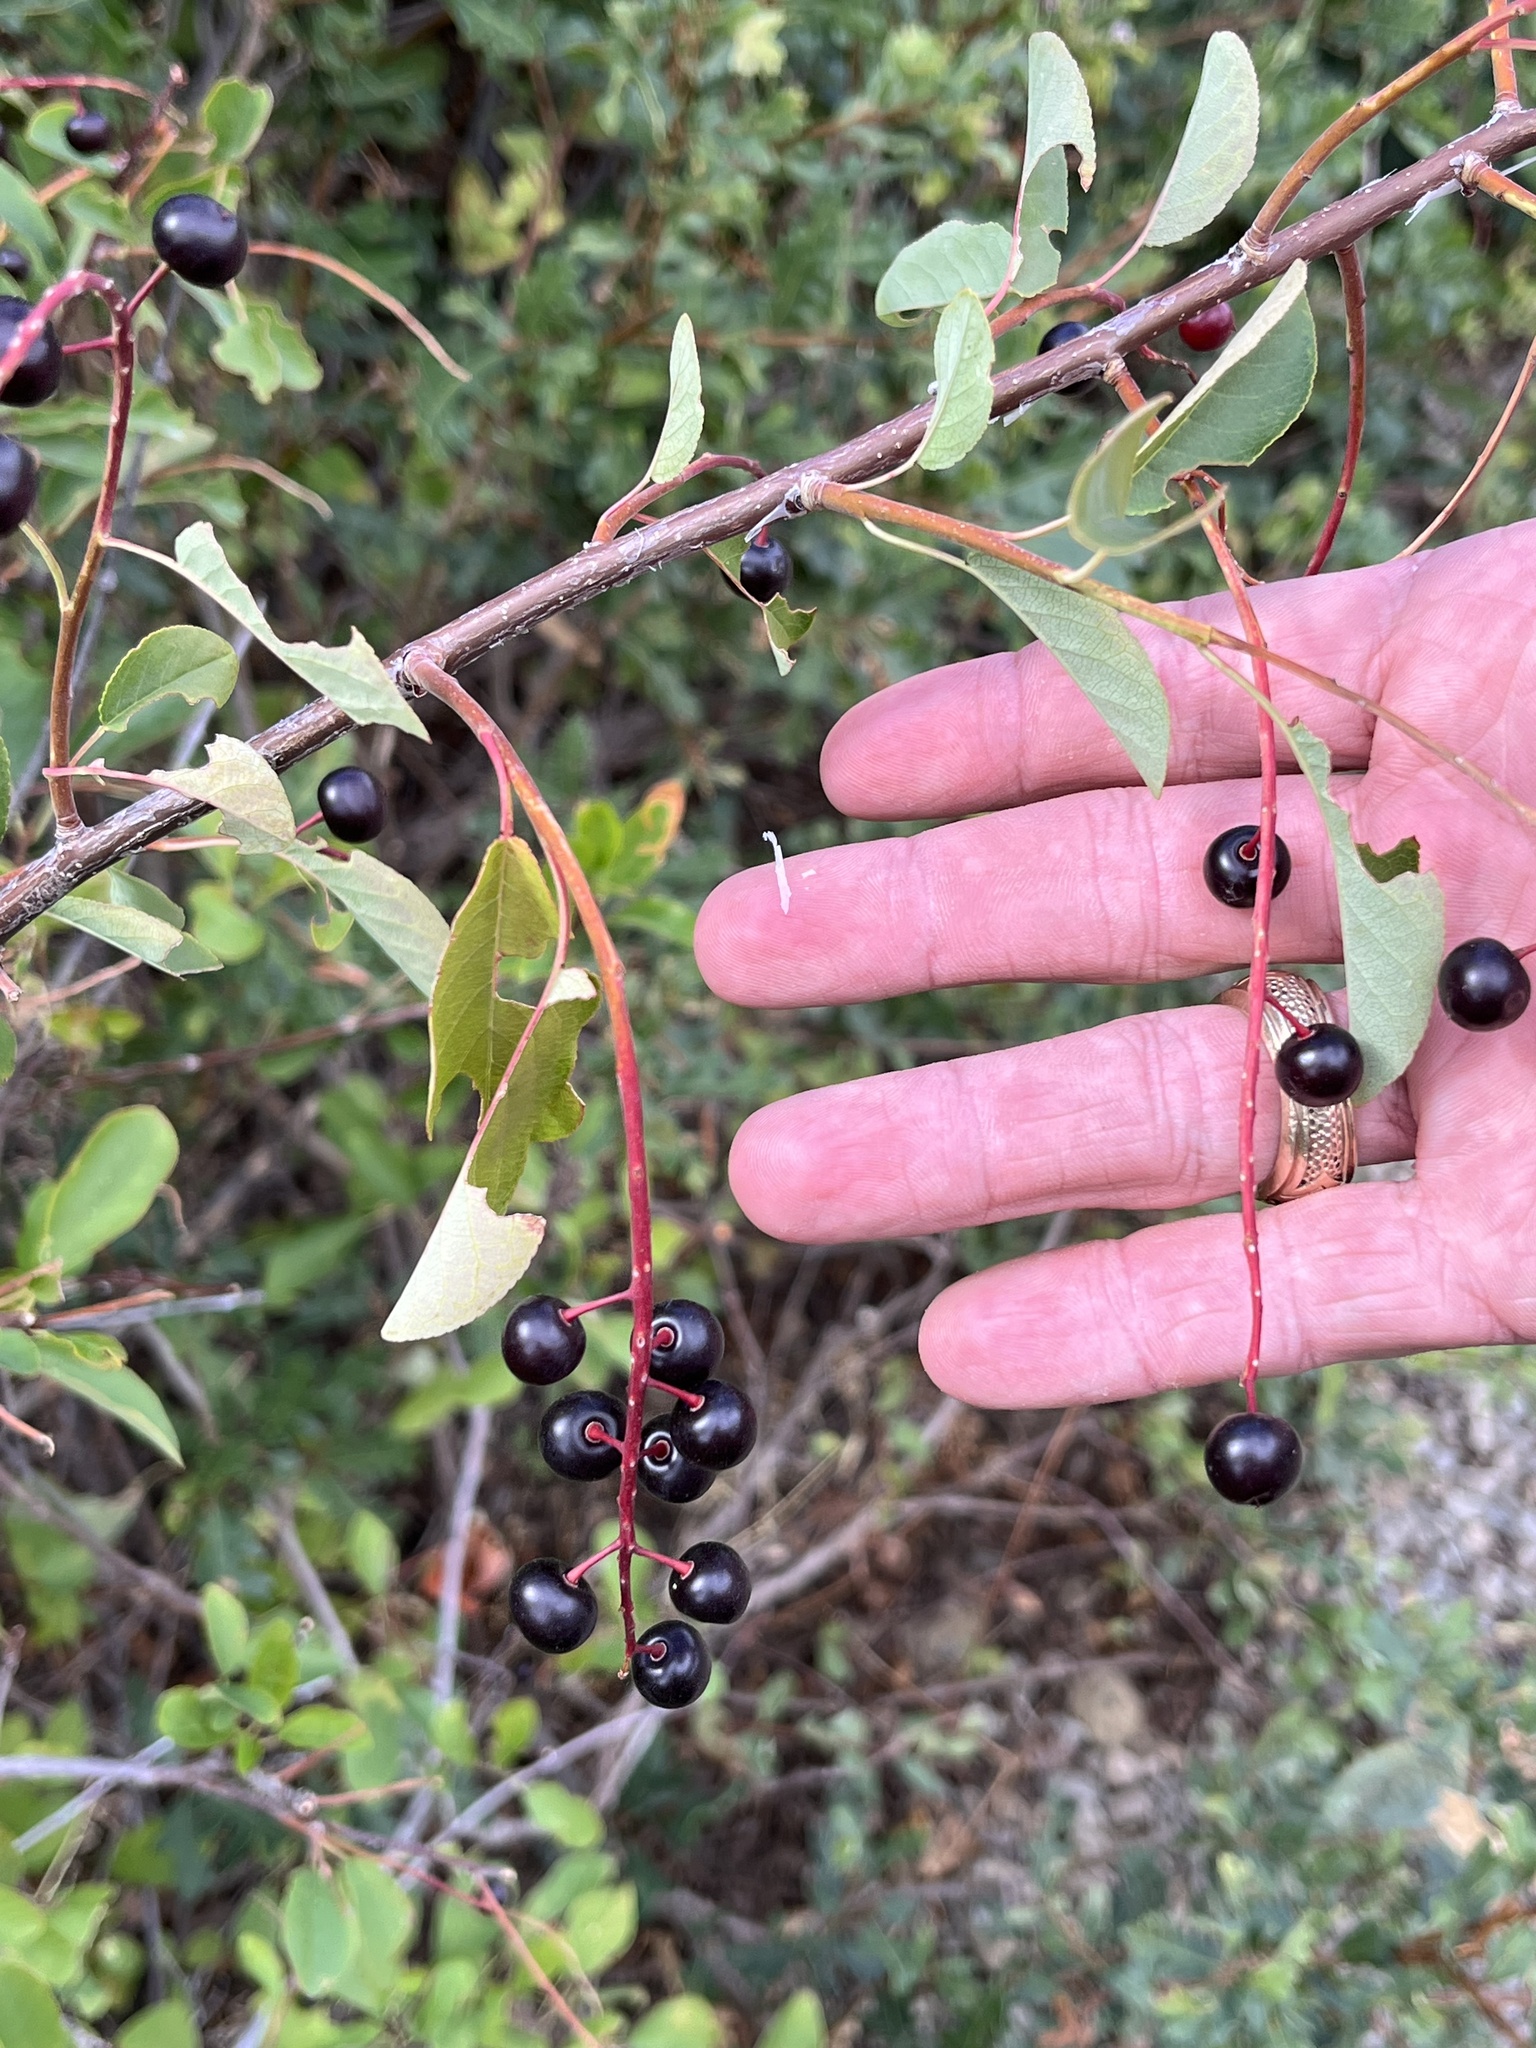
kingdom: Plantae
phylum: Tracheophyta
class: Magnoliopsida
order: Rosales
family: Rosaceae
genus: Prunus
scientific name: Prunus virginiana
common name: Chokecherry
